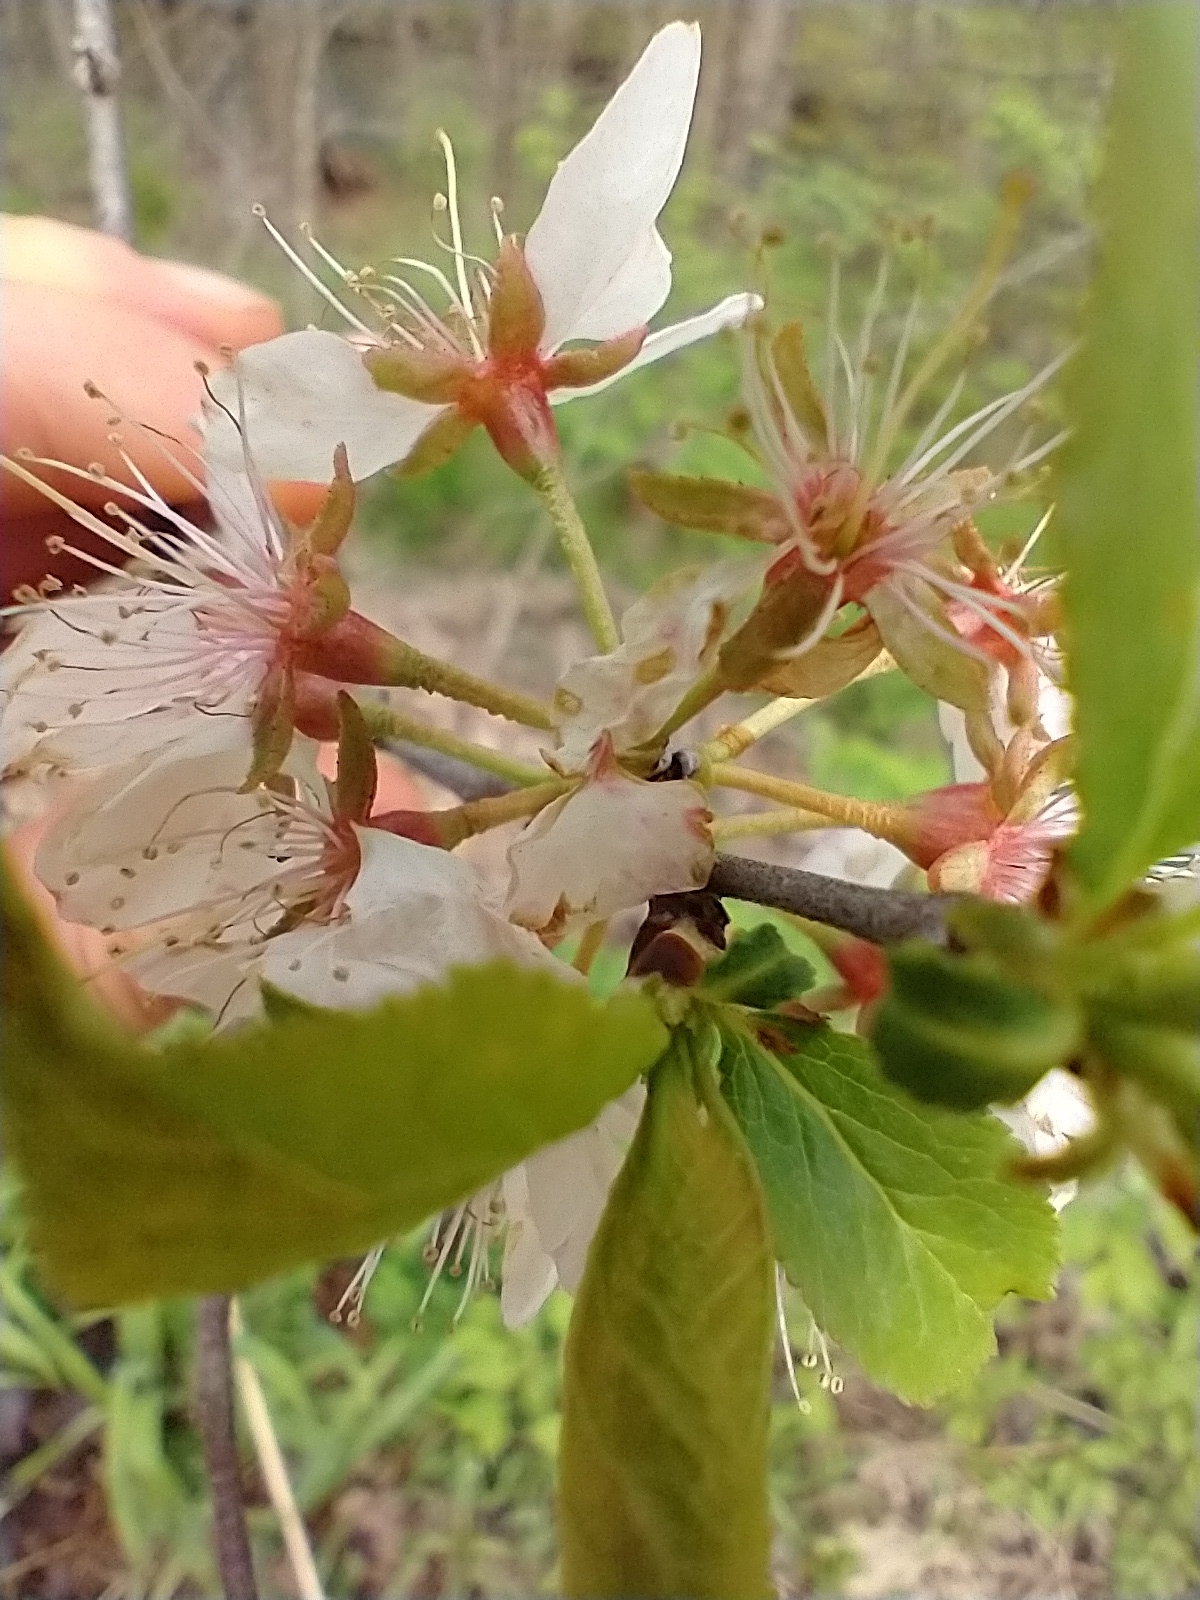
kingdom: Plantae
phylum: Tracheophyta
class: Magnoliopsida
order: Rosales
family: Rosaceae
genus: Prunus
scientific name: Prunus nigra
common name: Black plum
